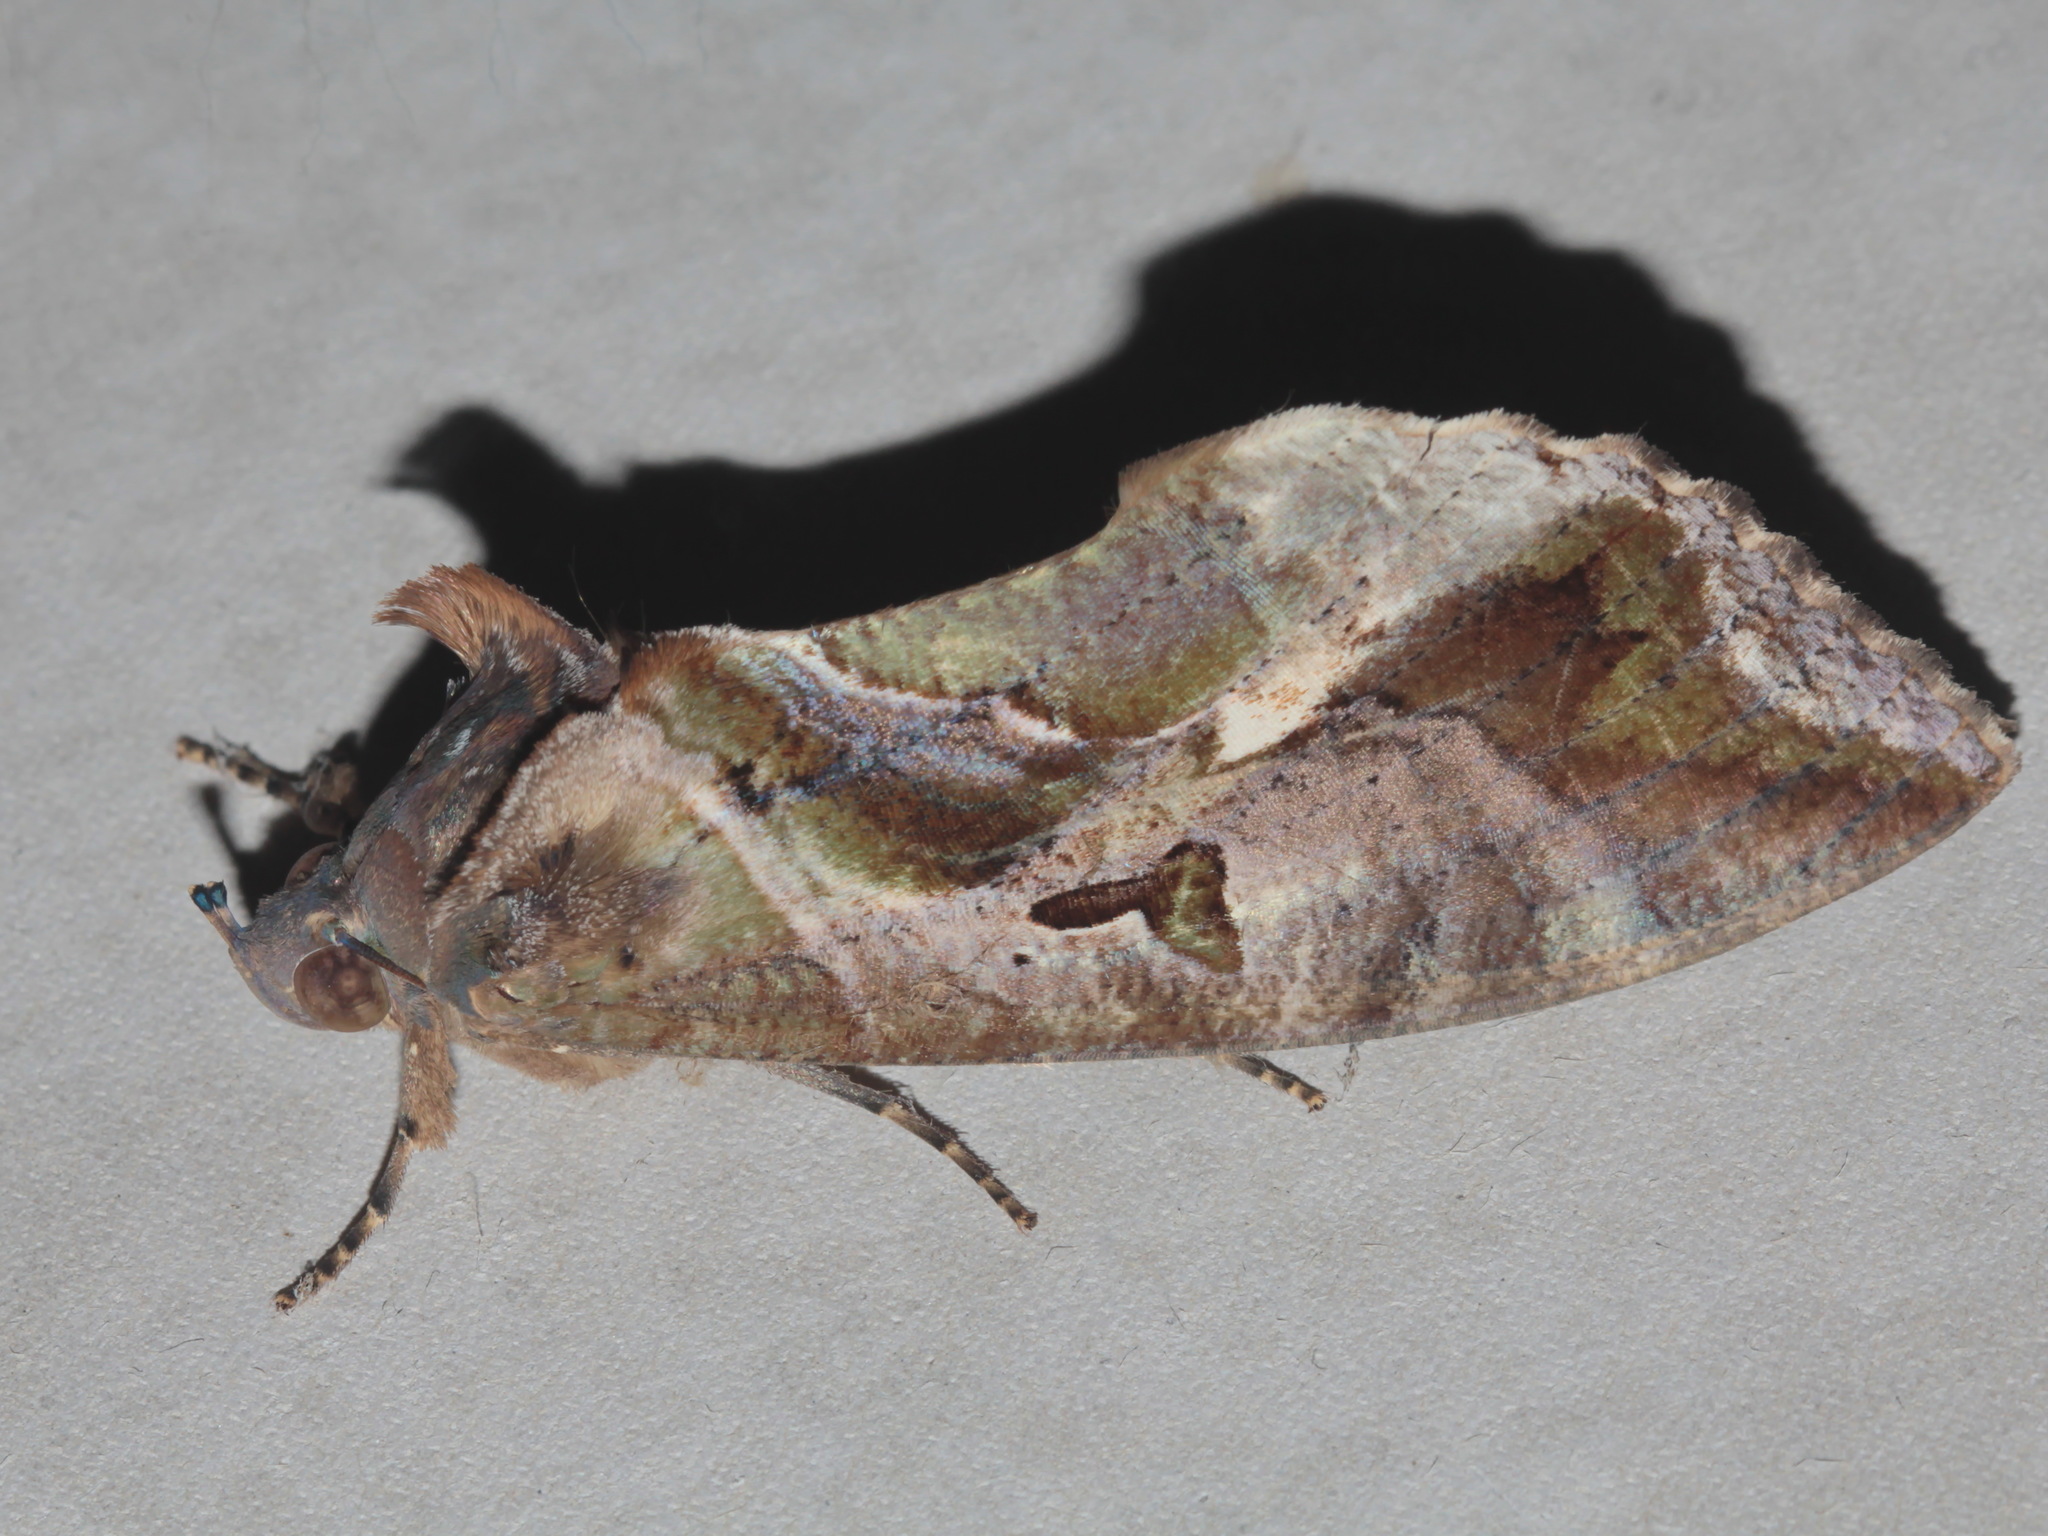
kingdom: Animalia
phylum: Arthropoda
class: Insecta
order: Lepidoptera
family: Erebidae
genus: Eudocima
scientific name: Eudocima phalonia
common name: Wasp
